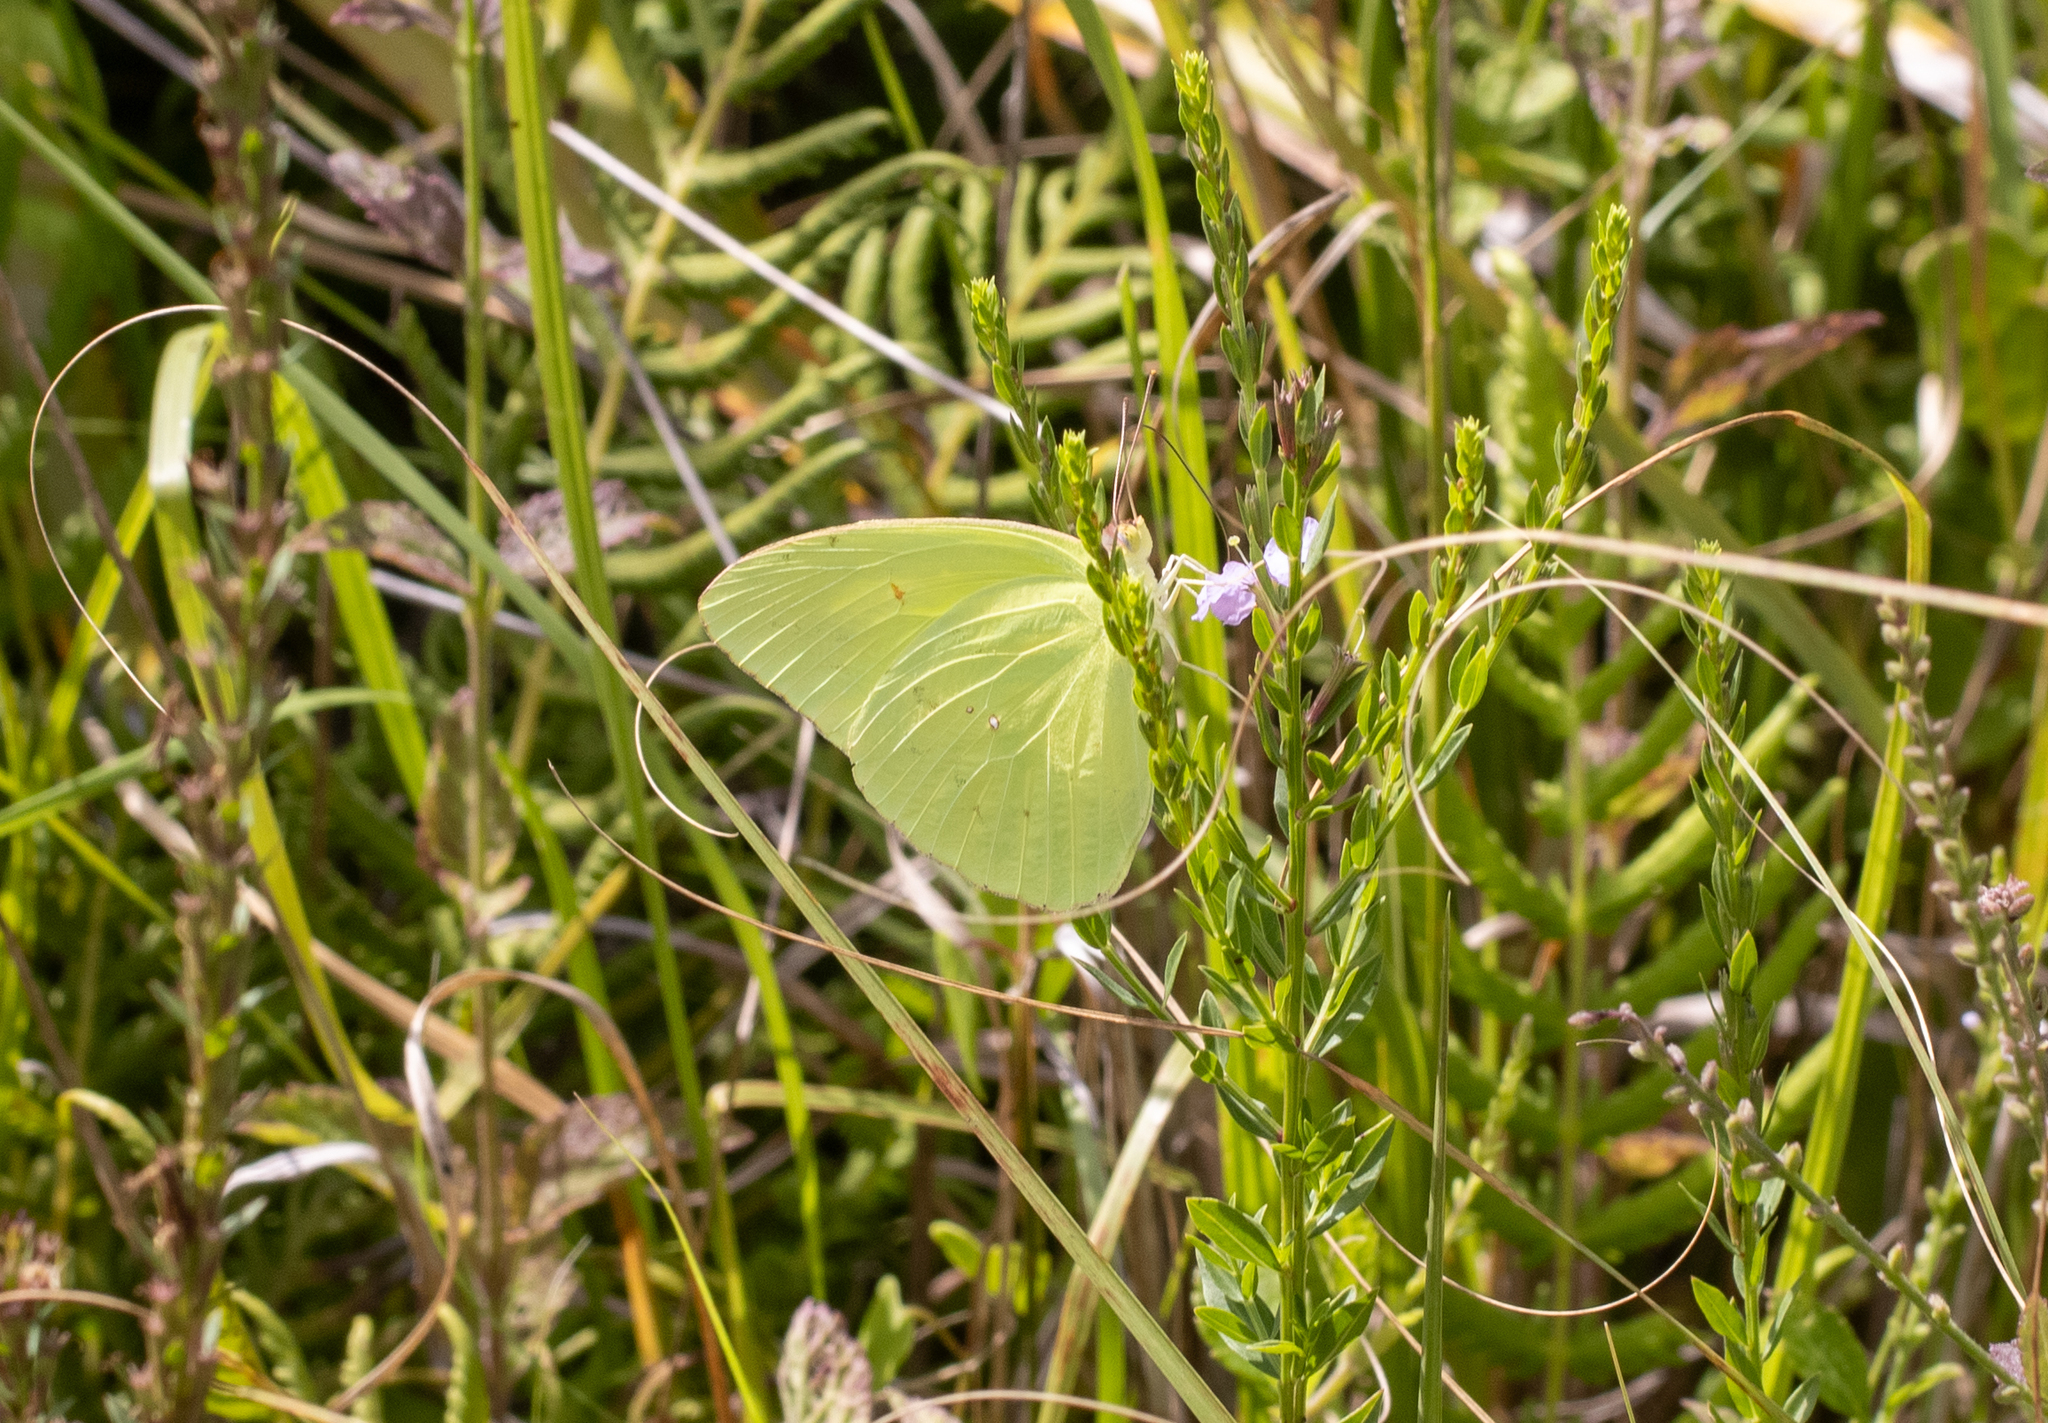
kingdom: Animalia
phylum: Arthropoda
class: Insecta
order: Lepidoptera
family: Pieridae
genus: Phoebis
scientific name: Phoebis sennae
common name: Cloudless sulphur
